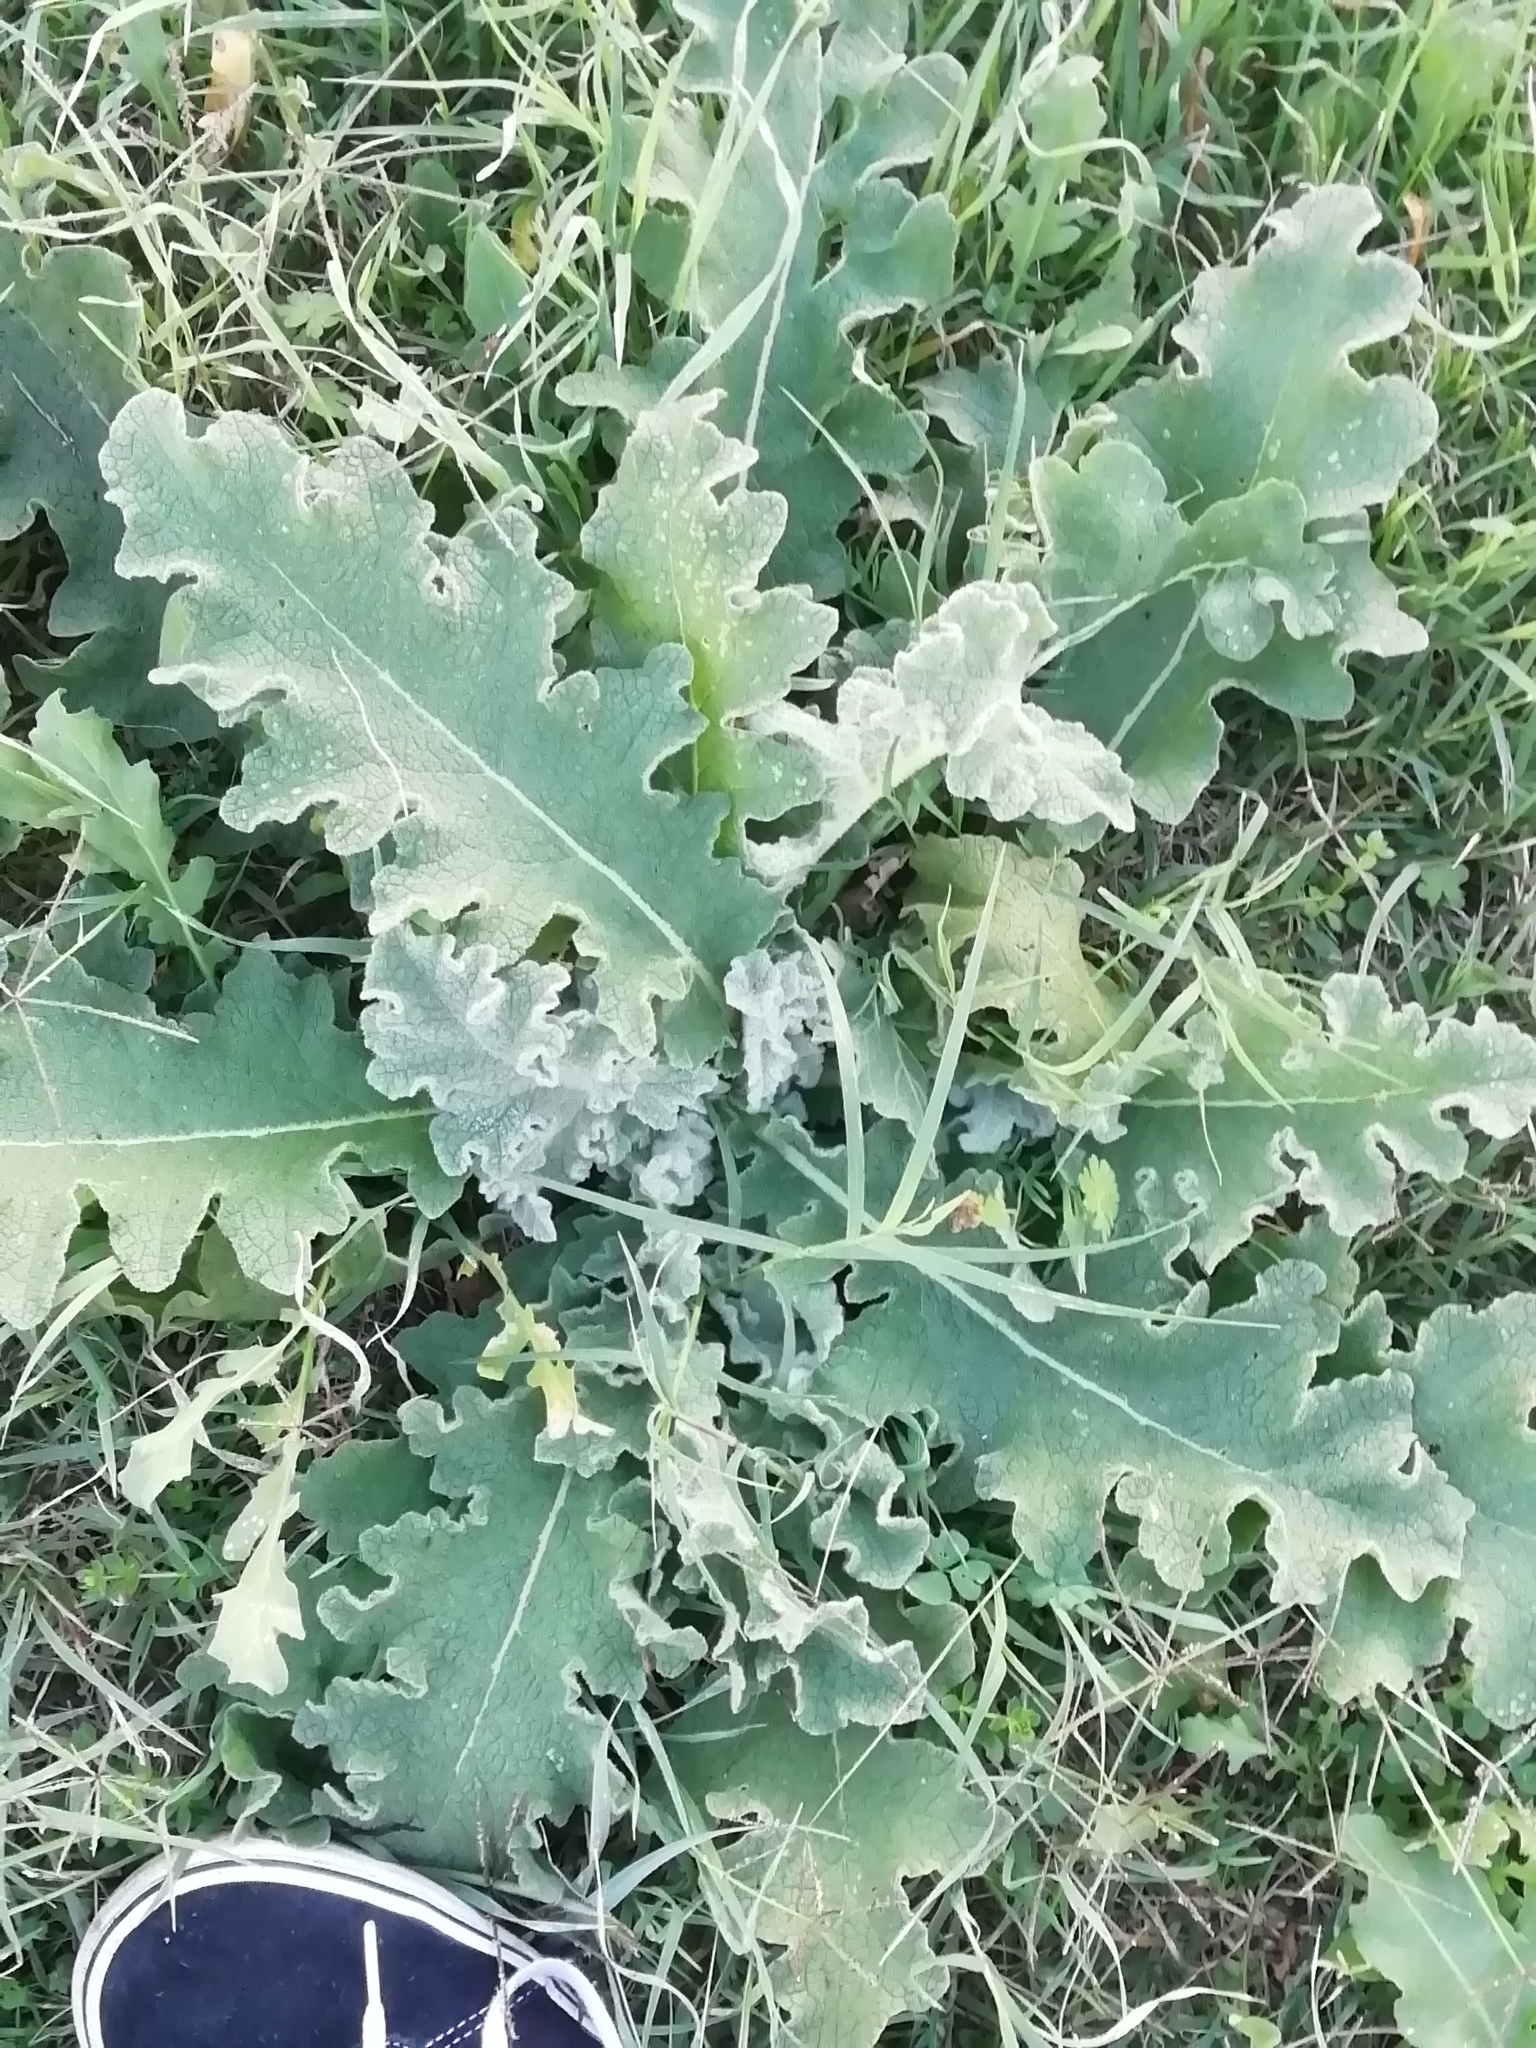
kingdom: Plantae
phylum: Tracheophyta
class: Magnoliopsida
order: Lamiales
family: Scrophulariaceae
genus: Verbascum
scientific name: Verbascum sinuatum
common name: Wavyleaf mullein
